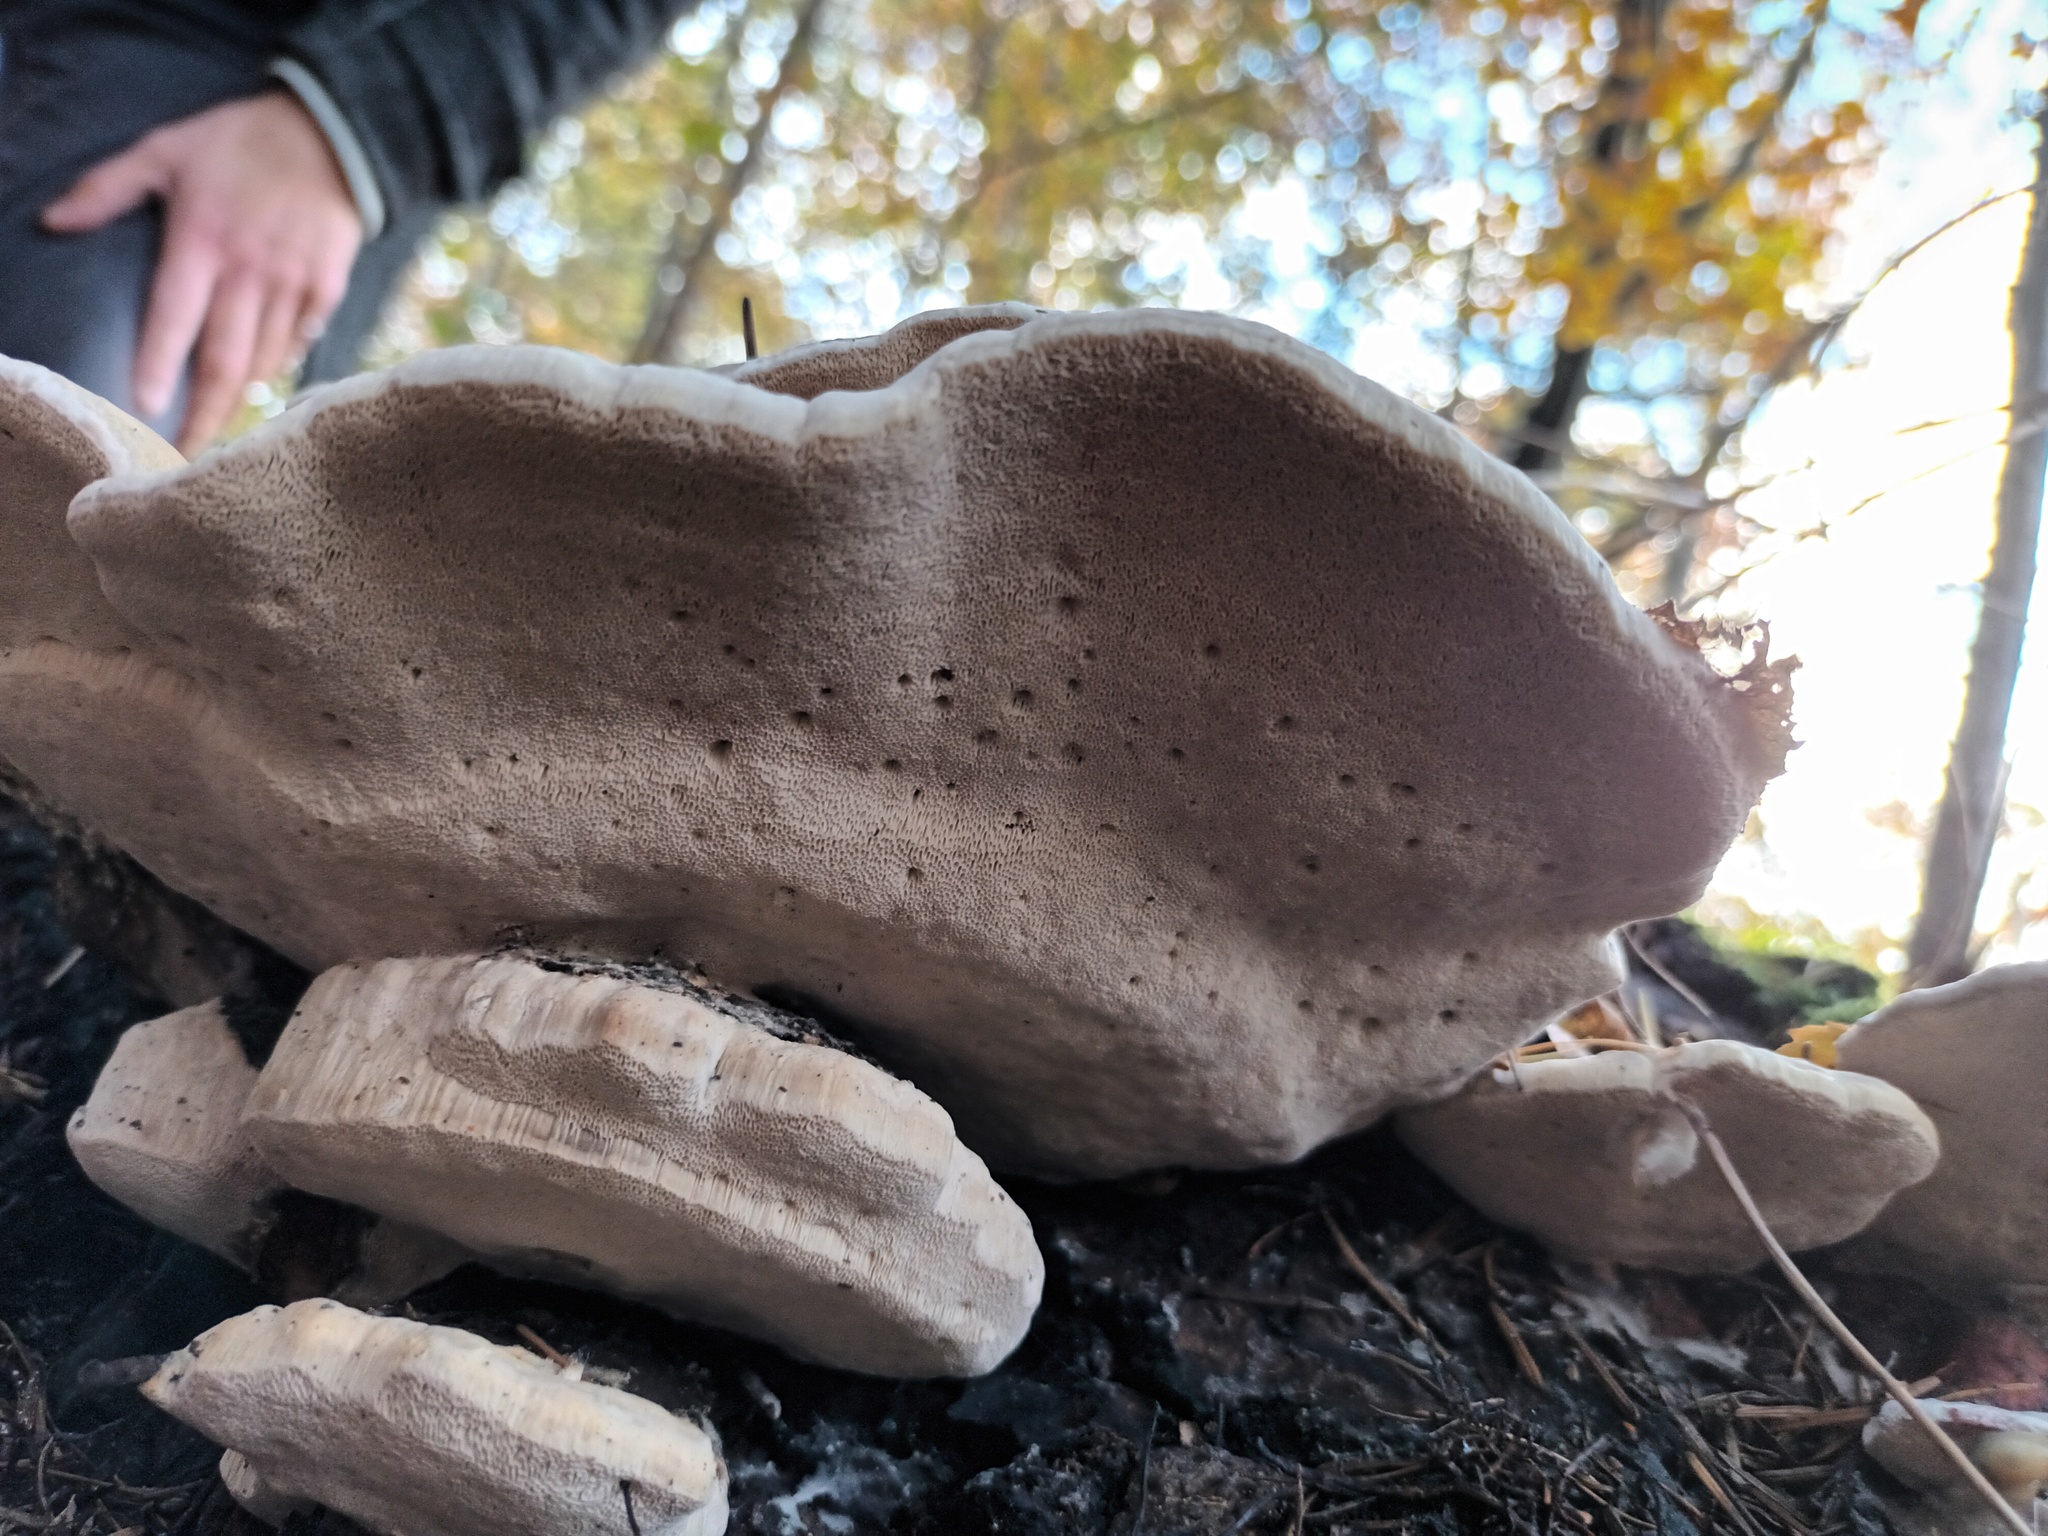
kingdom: Fungi
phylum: Basidiomycota
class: Agaricomycetes
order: Polyporales
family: Fomitopsidaceae
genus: Fomitopsis
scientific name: Fomitopsis pinicola
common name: Red-belted bracket
